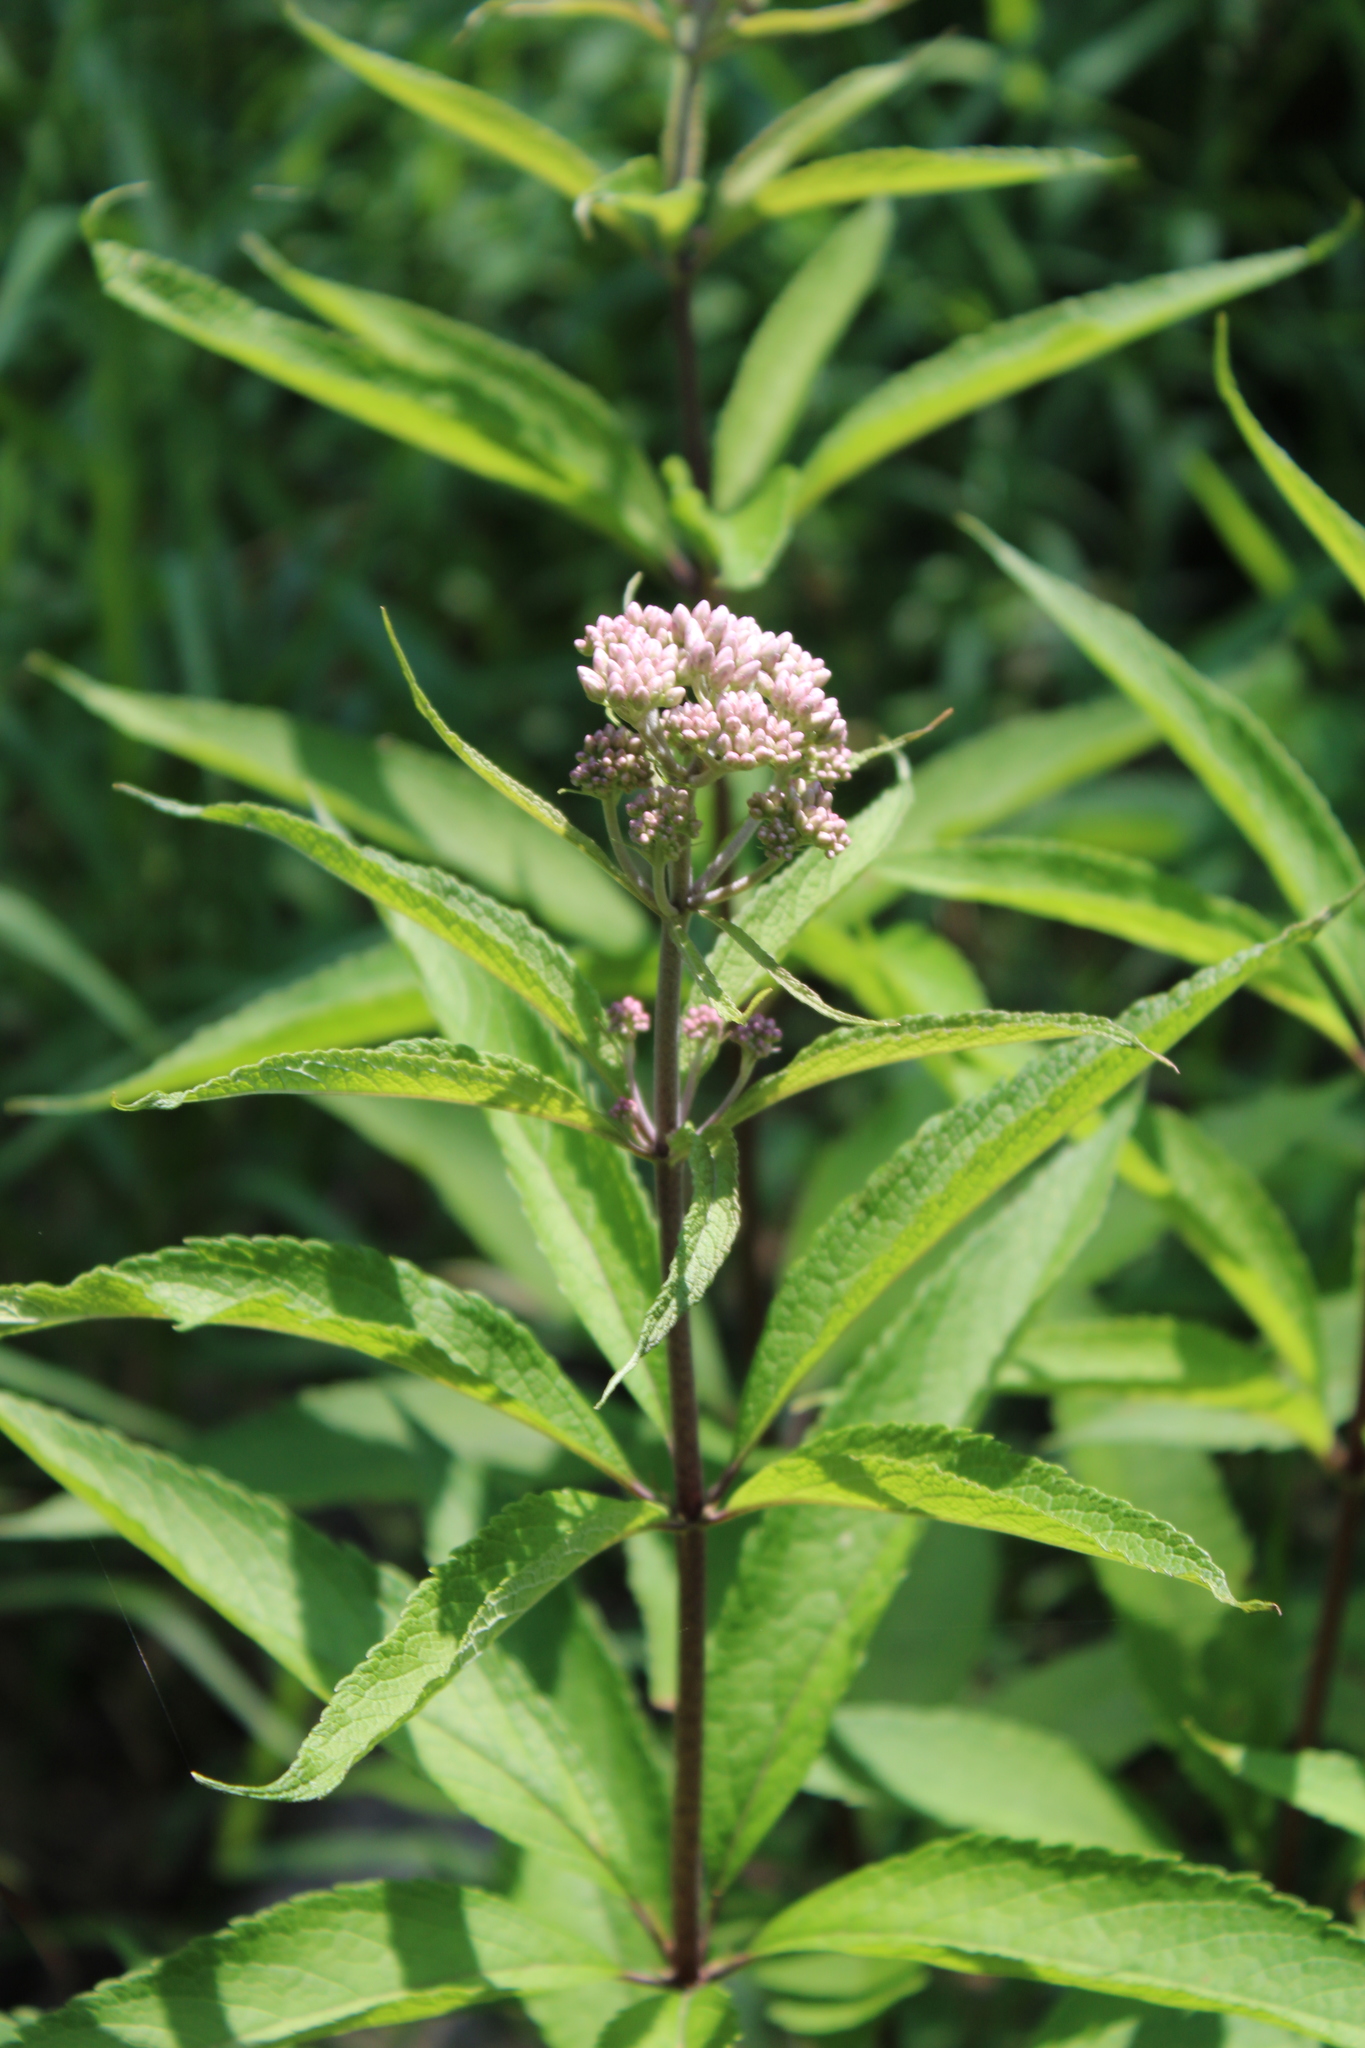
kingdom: Plantae
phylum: Tracheophyta
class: Magnoliopsida
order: Asterales
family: Asteraceae
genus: Eutrochium
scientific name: Eutrochium maculatum
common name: Spotted joe pye weed
